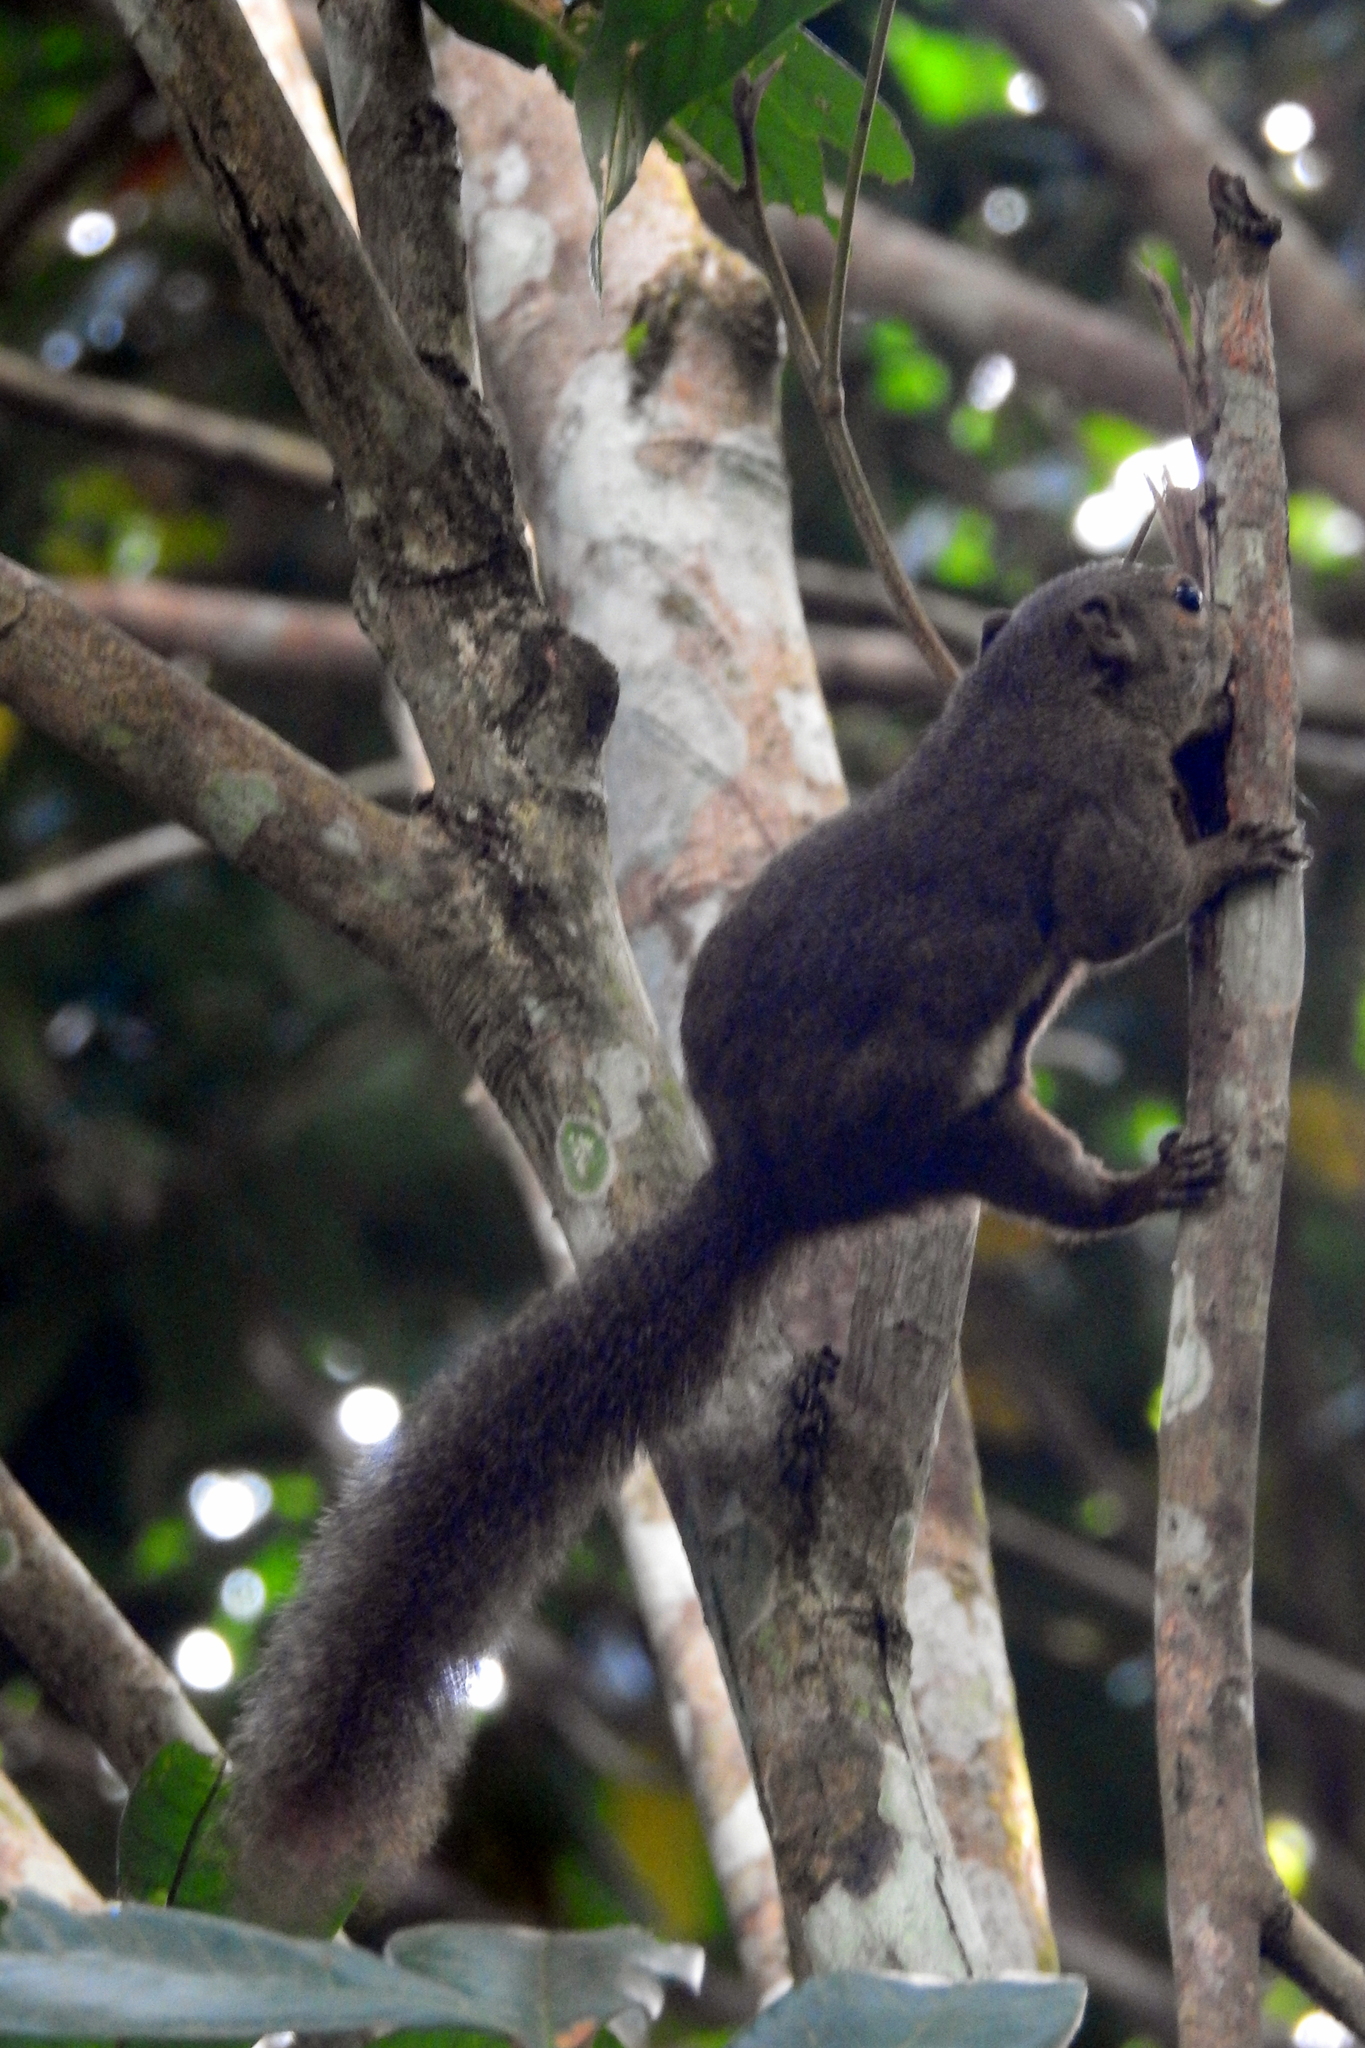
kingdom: Animalia
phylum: Chordata
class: Mammalia
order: Rodentia
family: Sciuridae
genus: Callosciurus
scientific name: Callosciurus notatus
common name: Plantain squirrel
